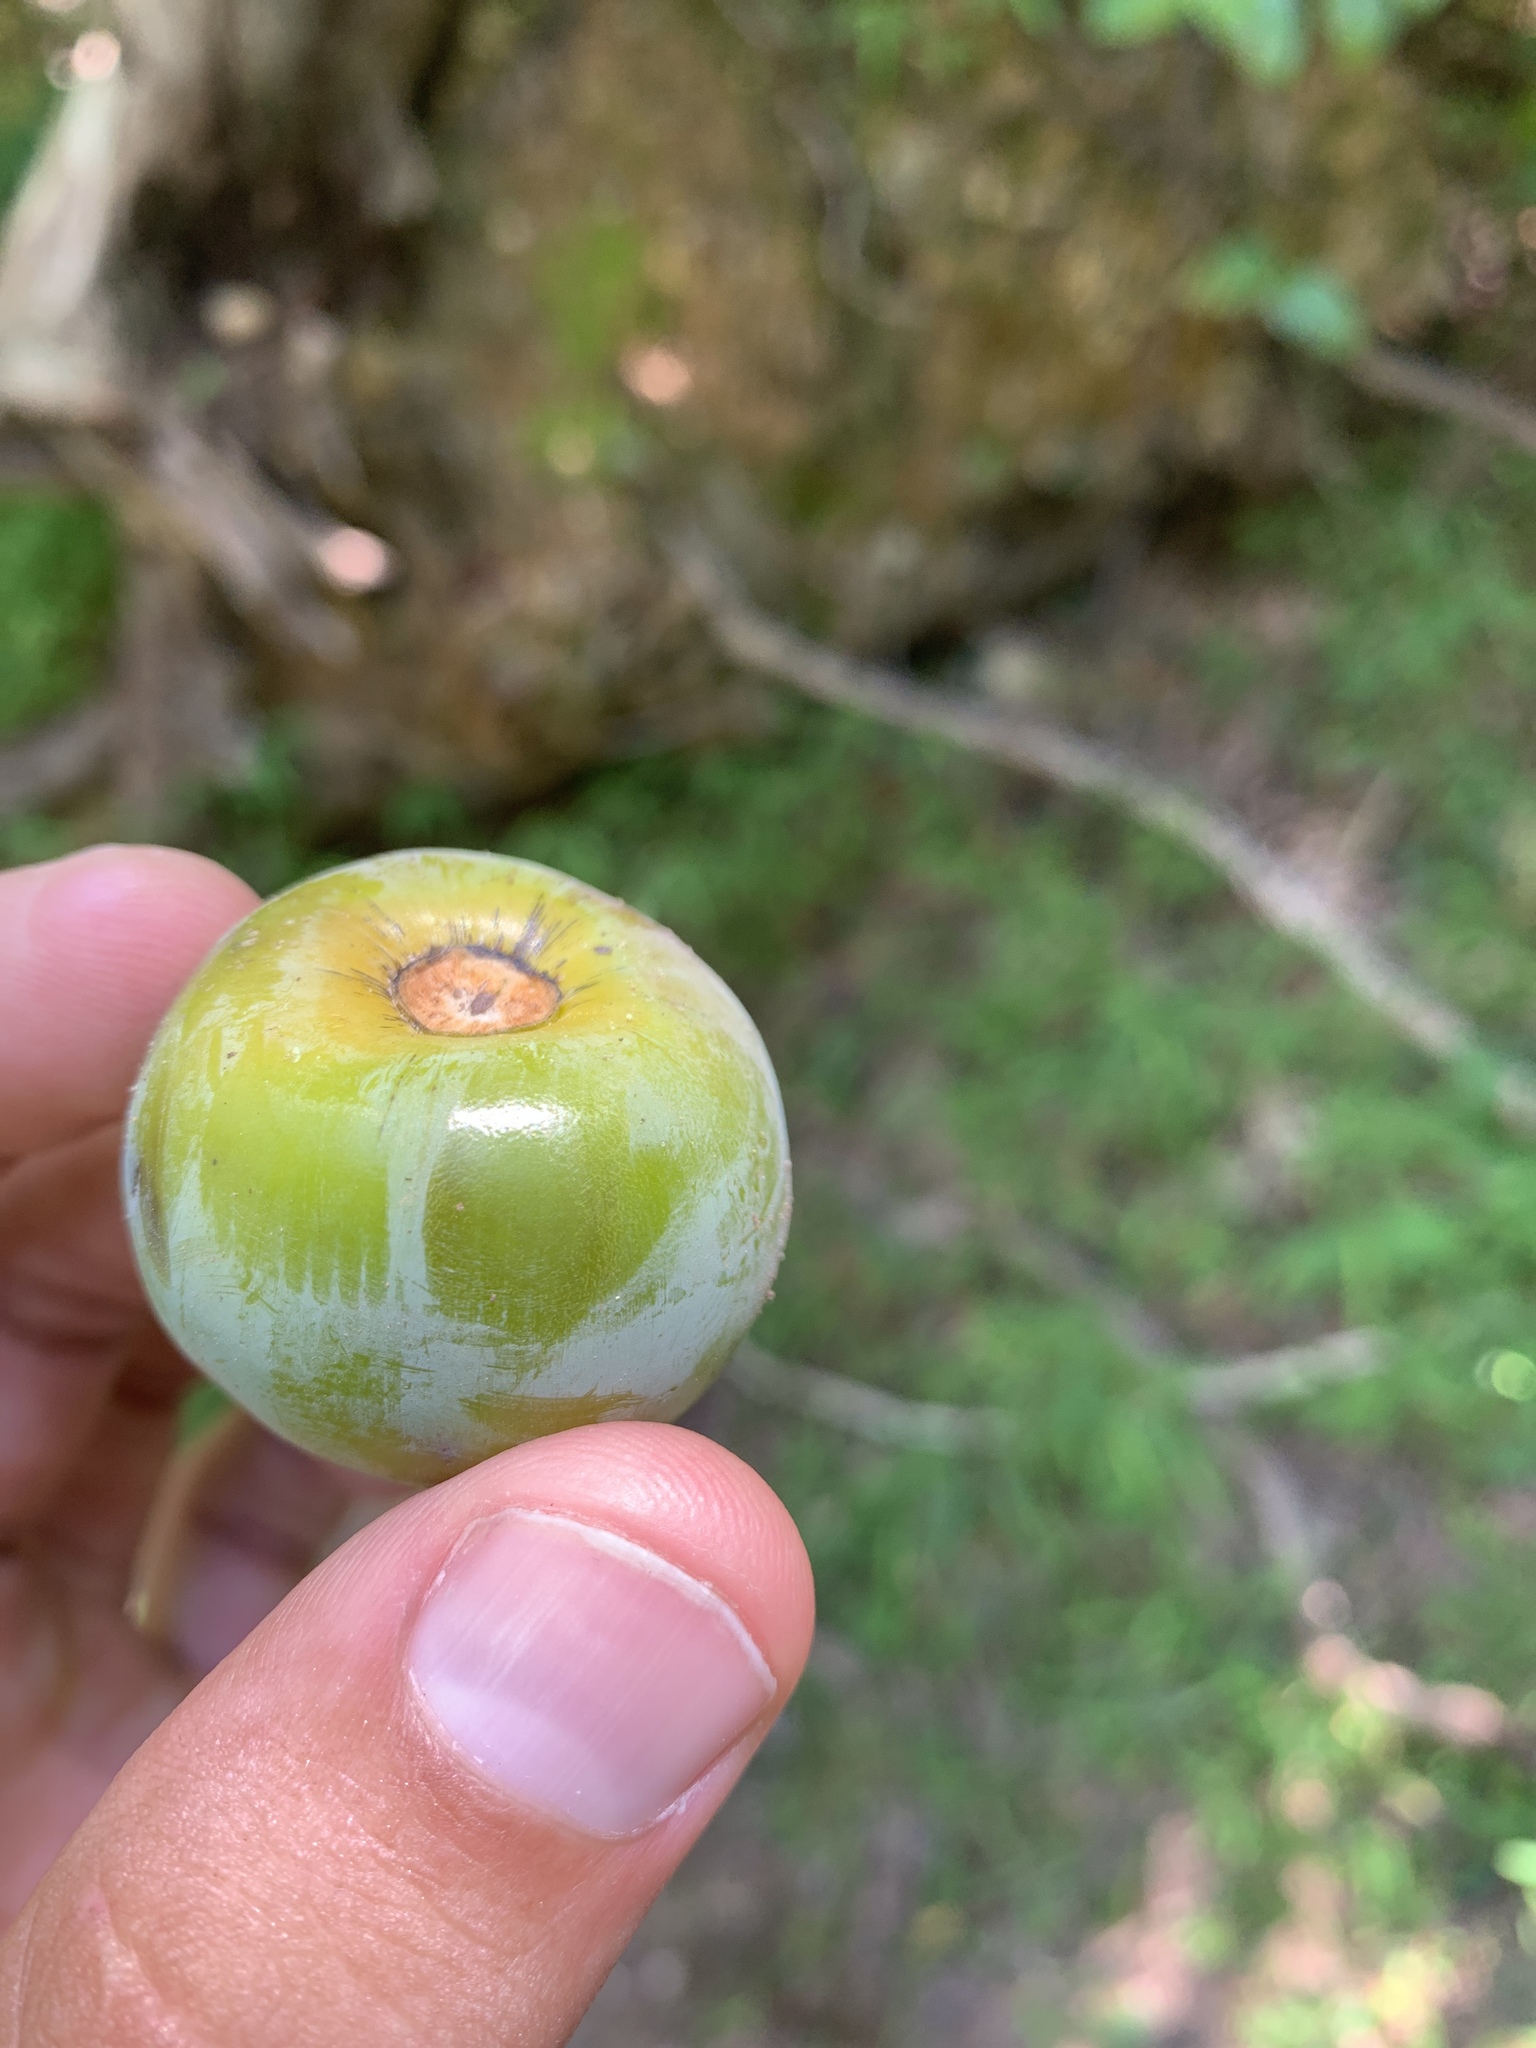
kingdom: Plantae
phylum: Tracheophyta
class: Magnoliopsida
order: Ericales
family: Ebenaceae
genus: Diospyros
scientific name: Diospyros virginiana
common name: Persimmon
